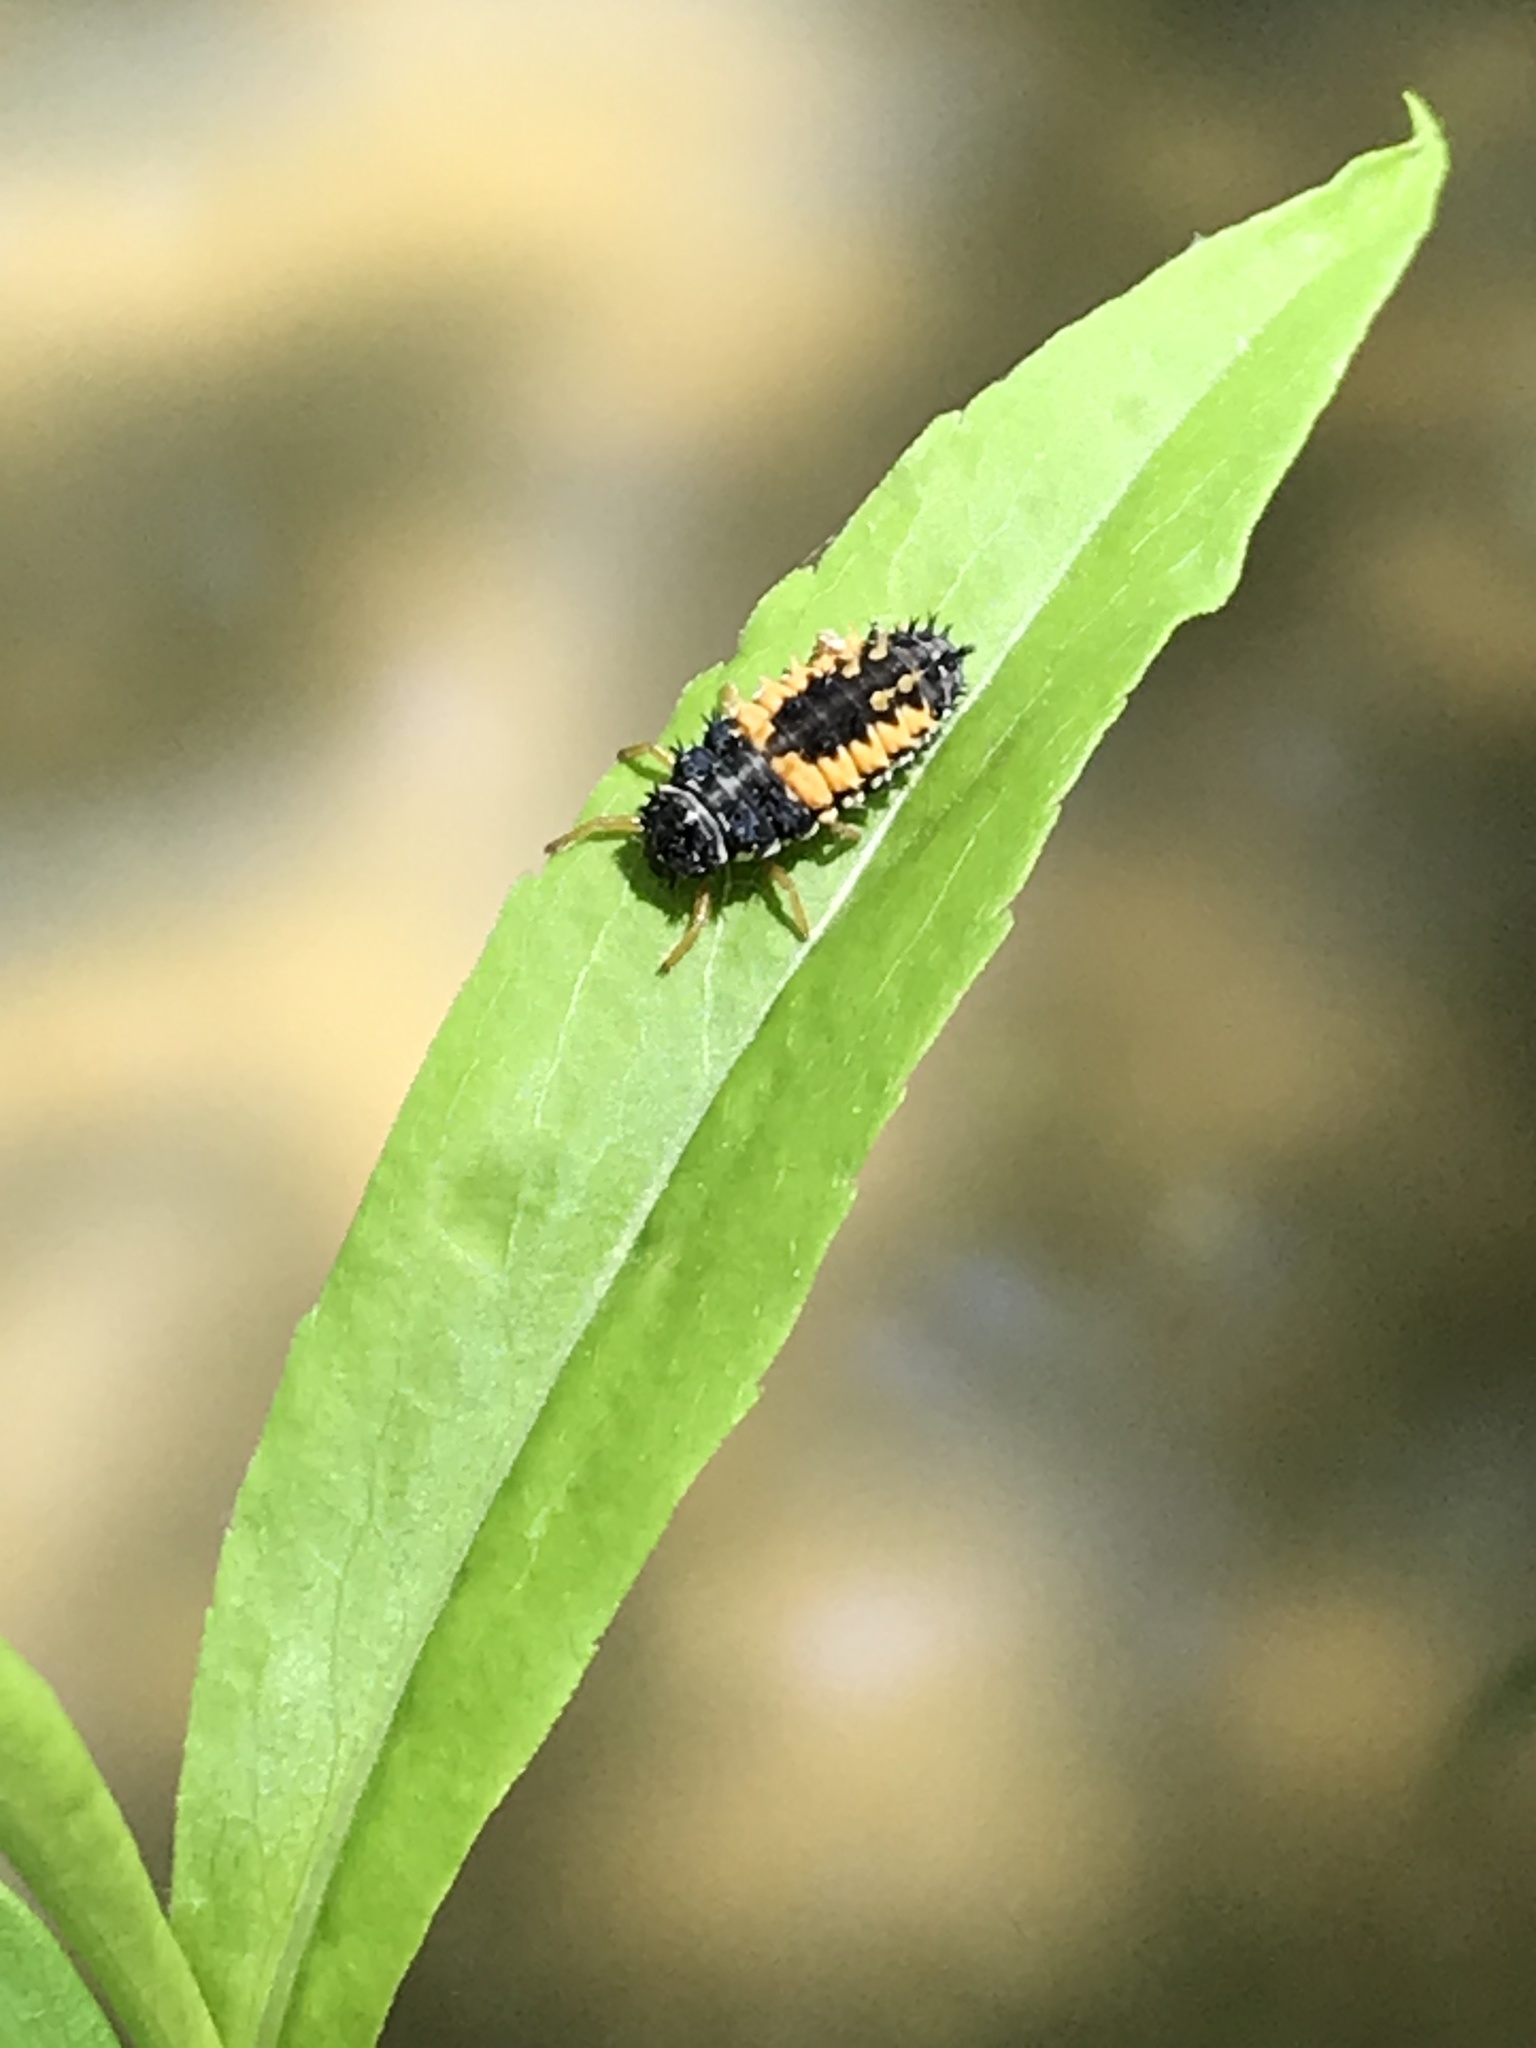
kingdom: Animalia
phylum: Arthropoda
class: Insecta
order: Coleoptera
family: Coccinellidae
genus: Harmonia
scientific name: Harmonia axyridis
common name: Harlequin ladybird
